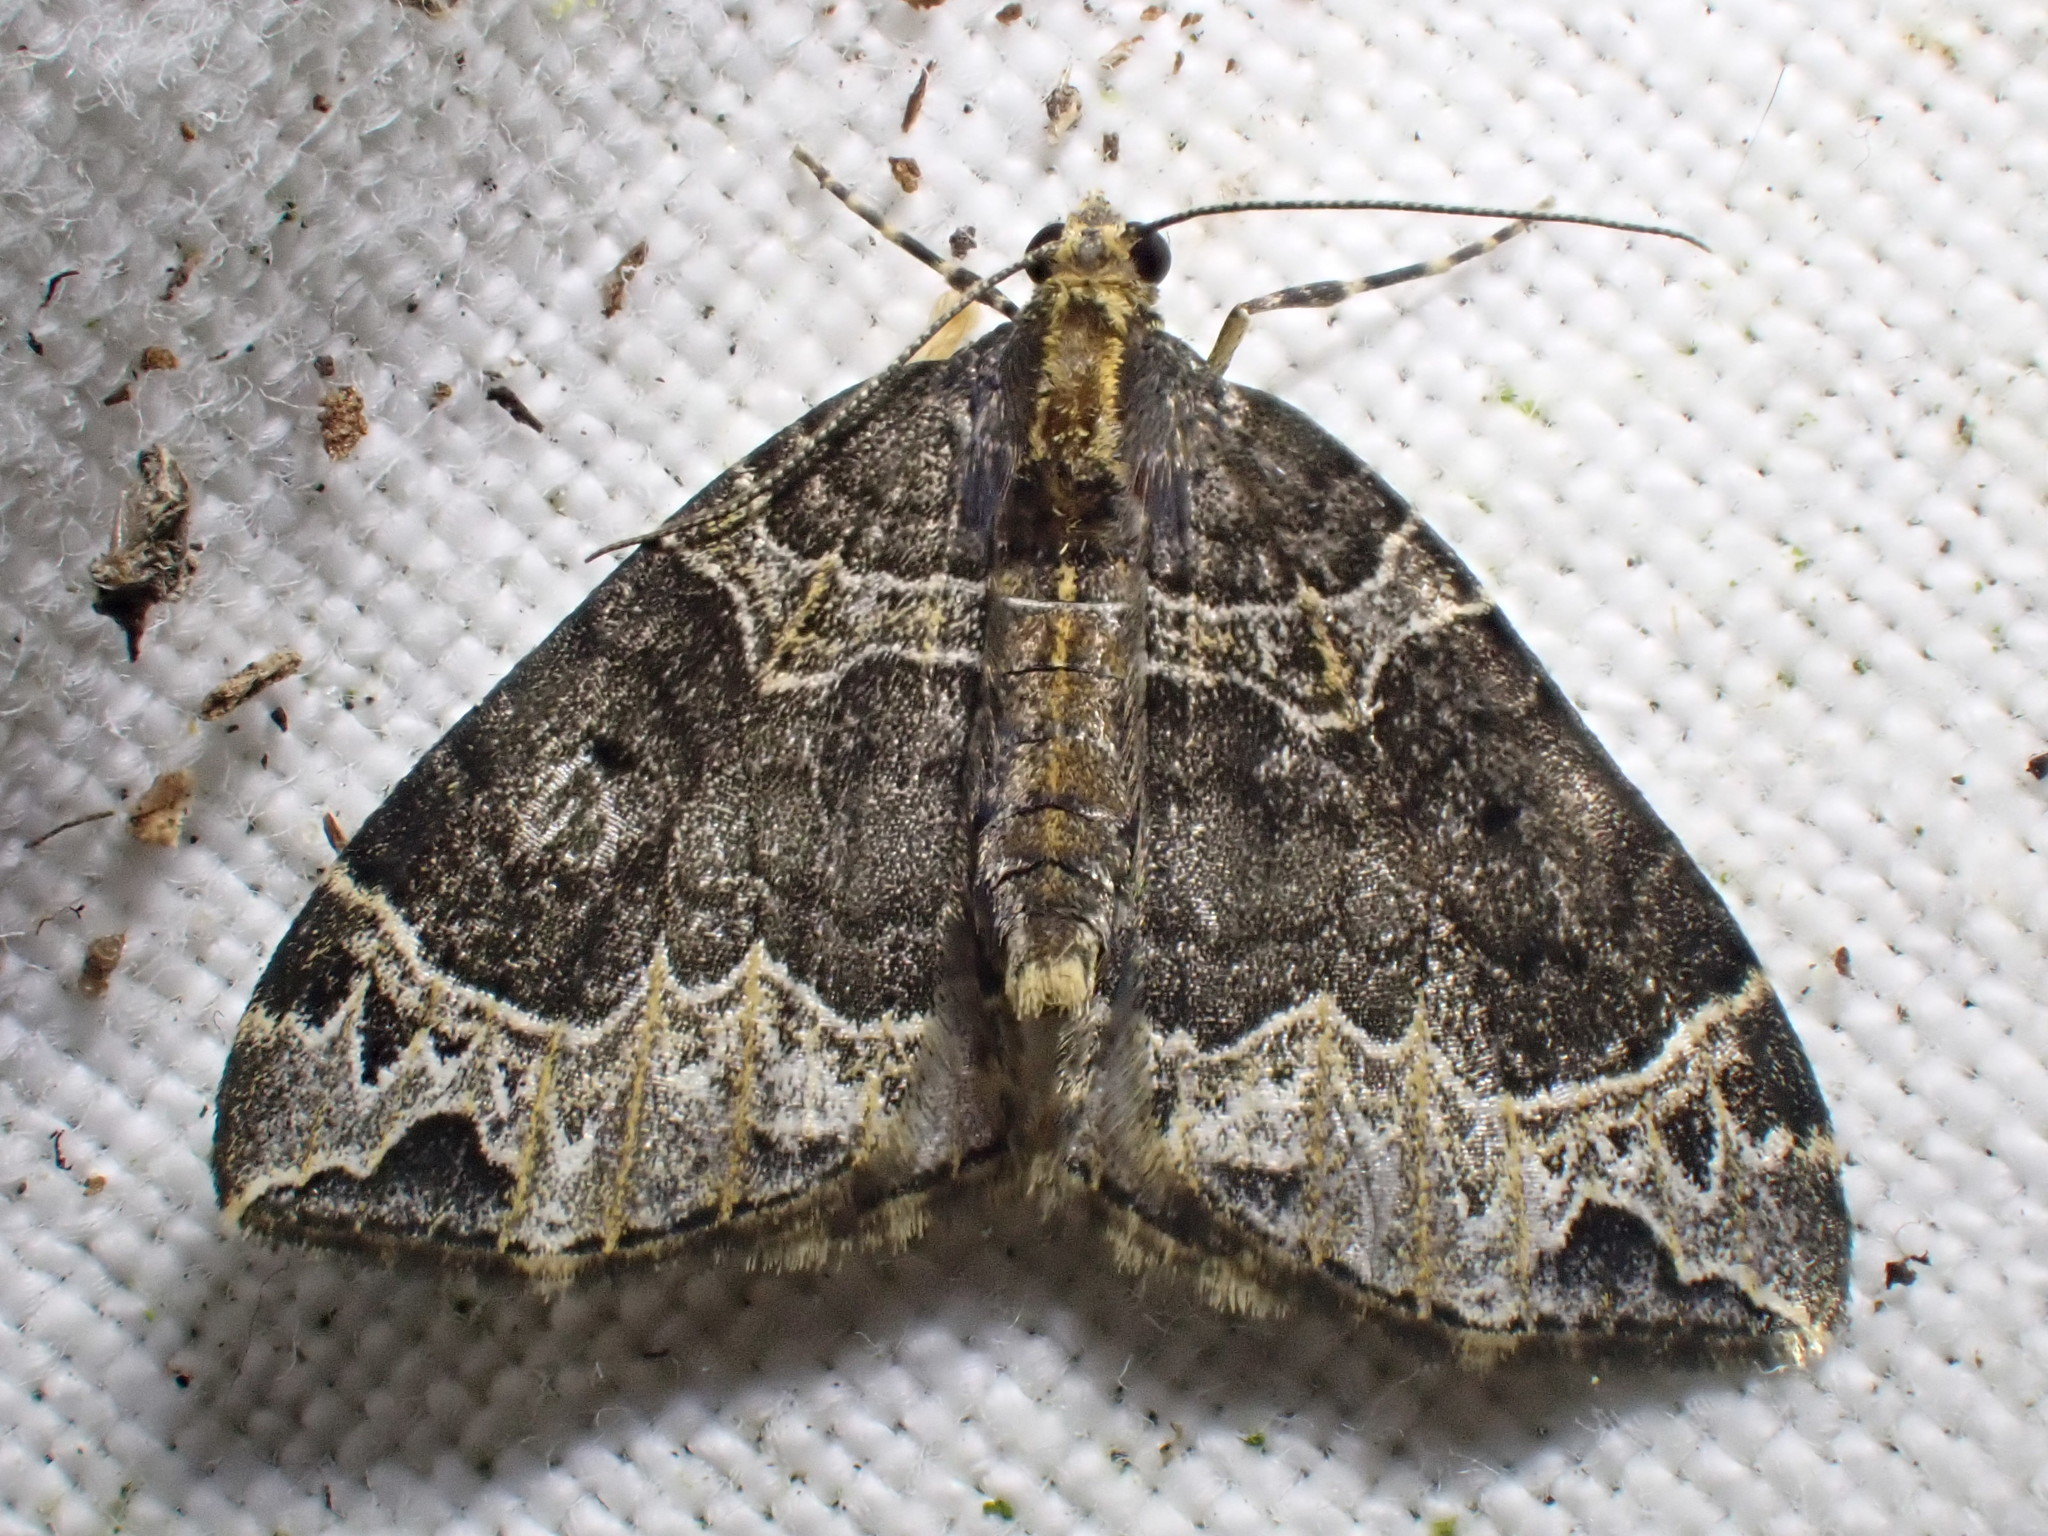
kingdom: Animalia
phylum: Arthropoda
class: Insecta
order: Lepidoptera
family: Geometridae
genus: Ecliptopera
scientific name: Ecliptopera silaceata
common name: Small phoenix
